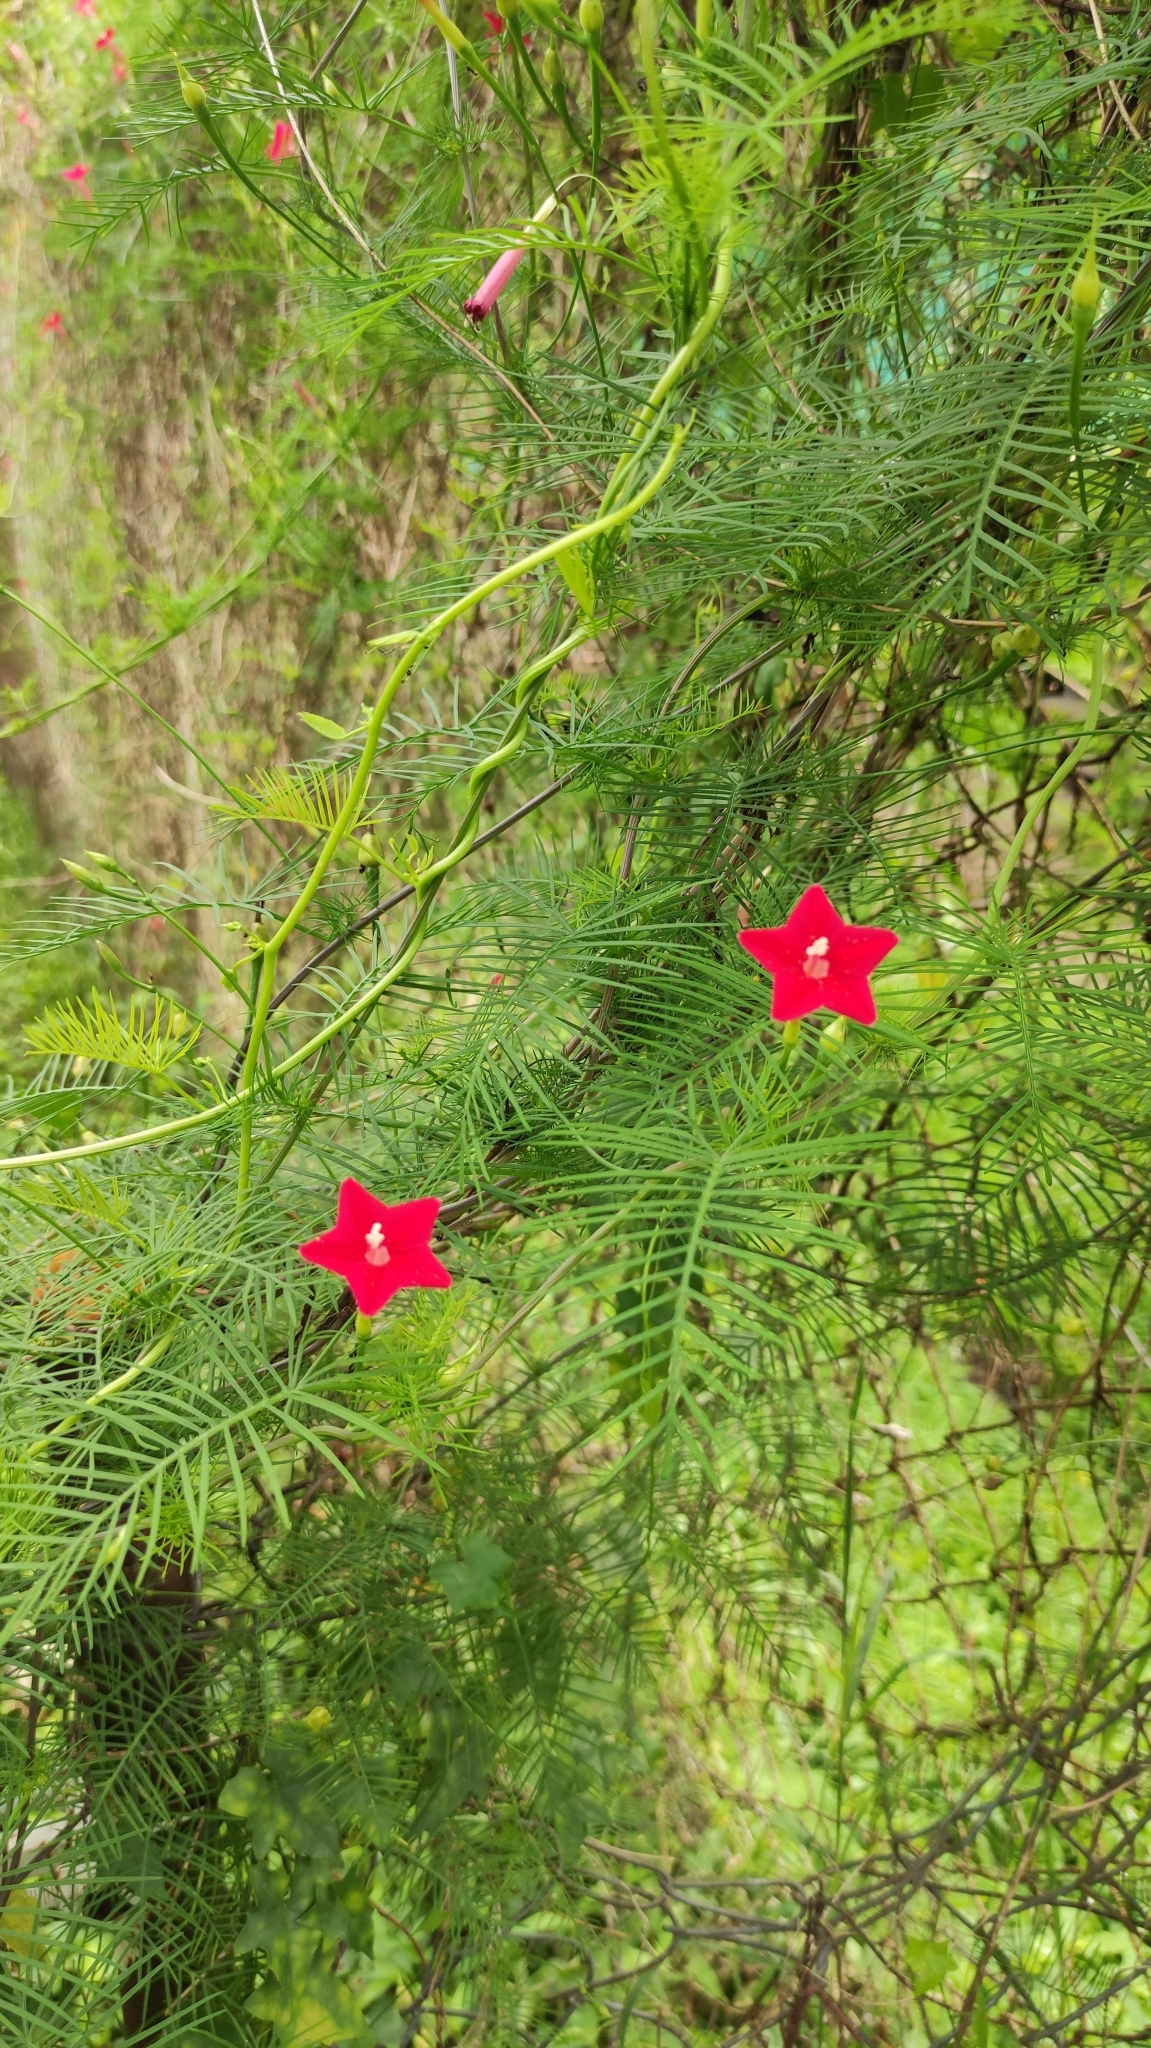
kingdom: Plantae
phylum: Tracheophyta
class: Magnoliopsida
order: Solanales
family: Convolvulaceae
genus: Ipomoea
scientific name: Ipomoea quamoclit
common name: Cypress vine
